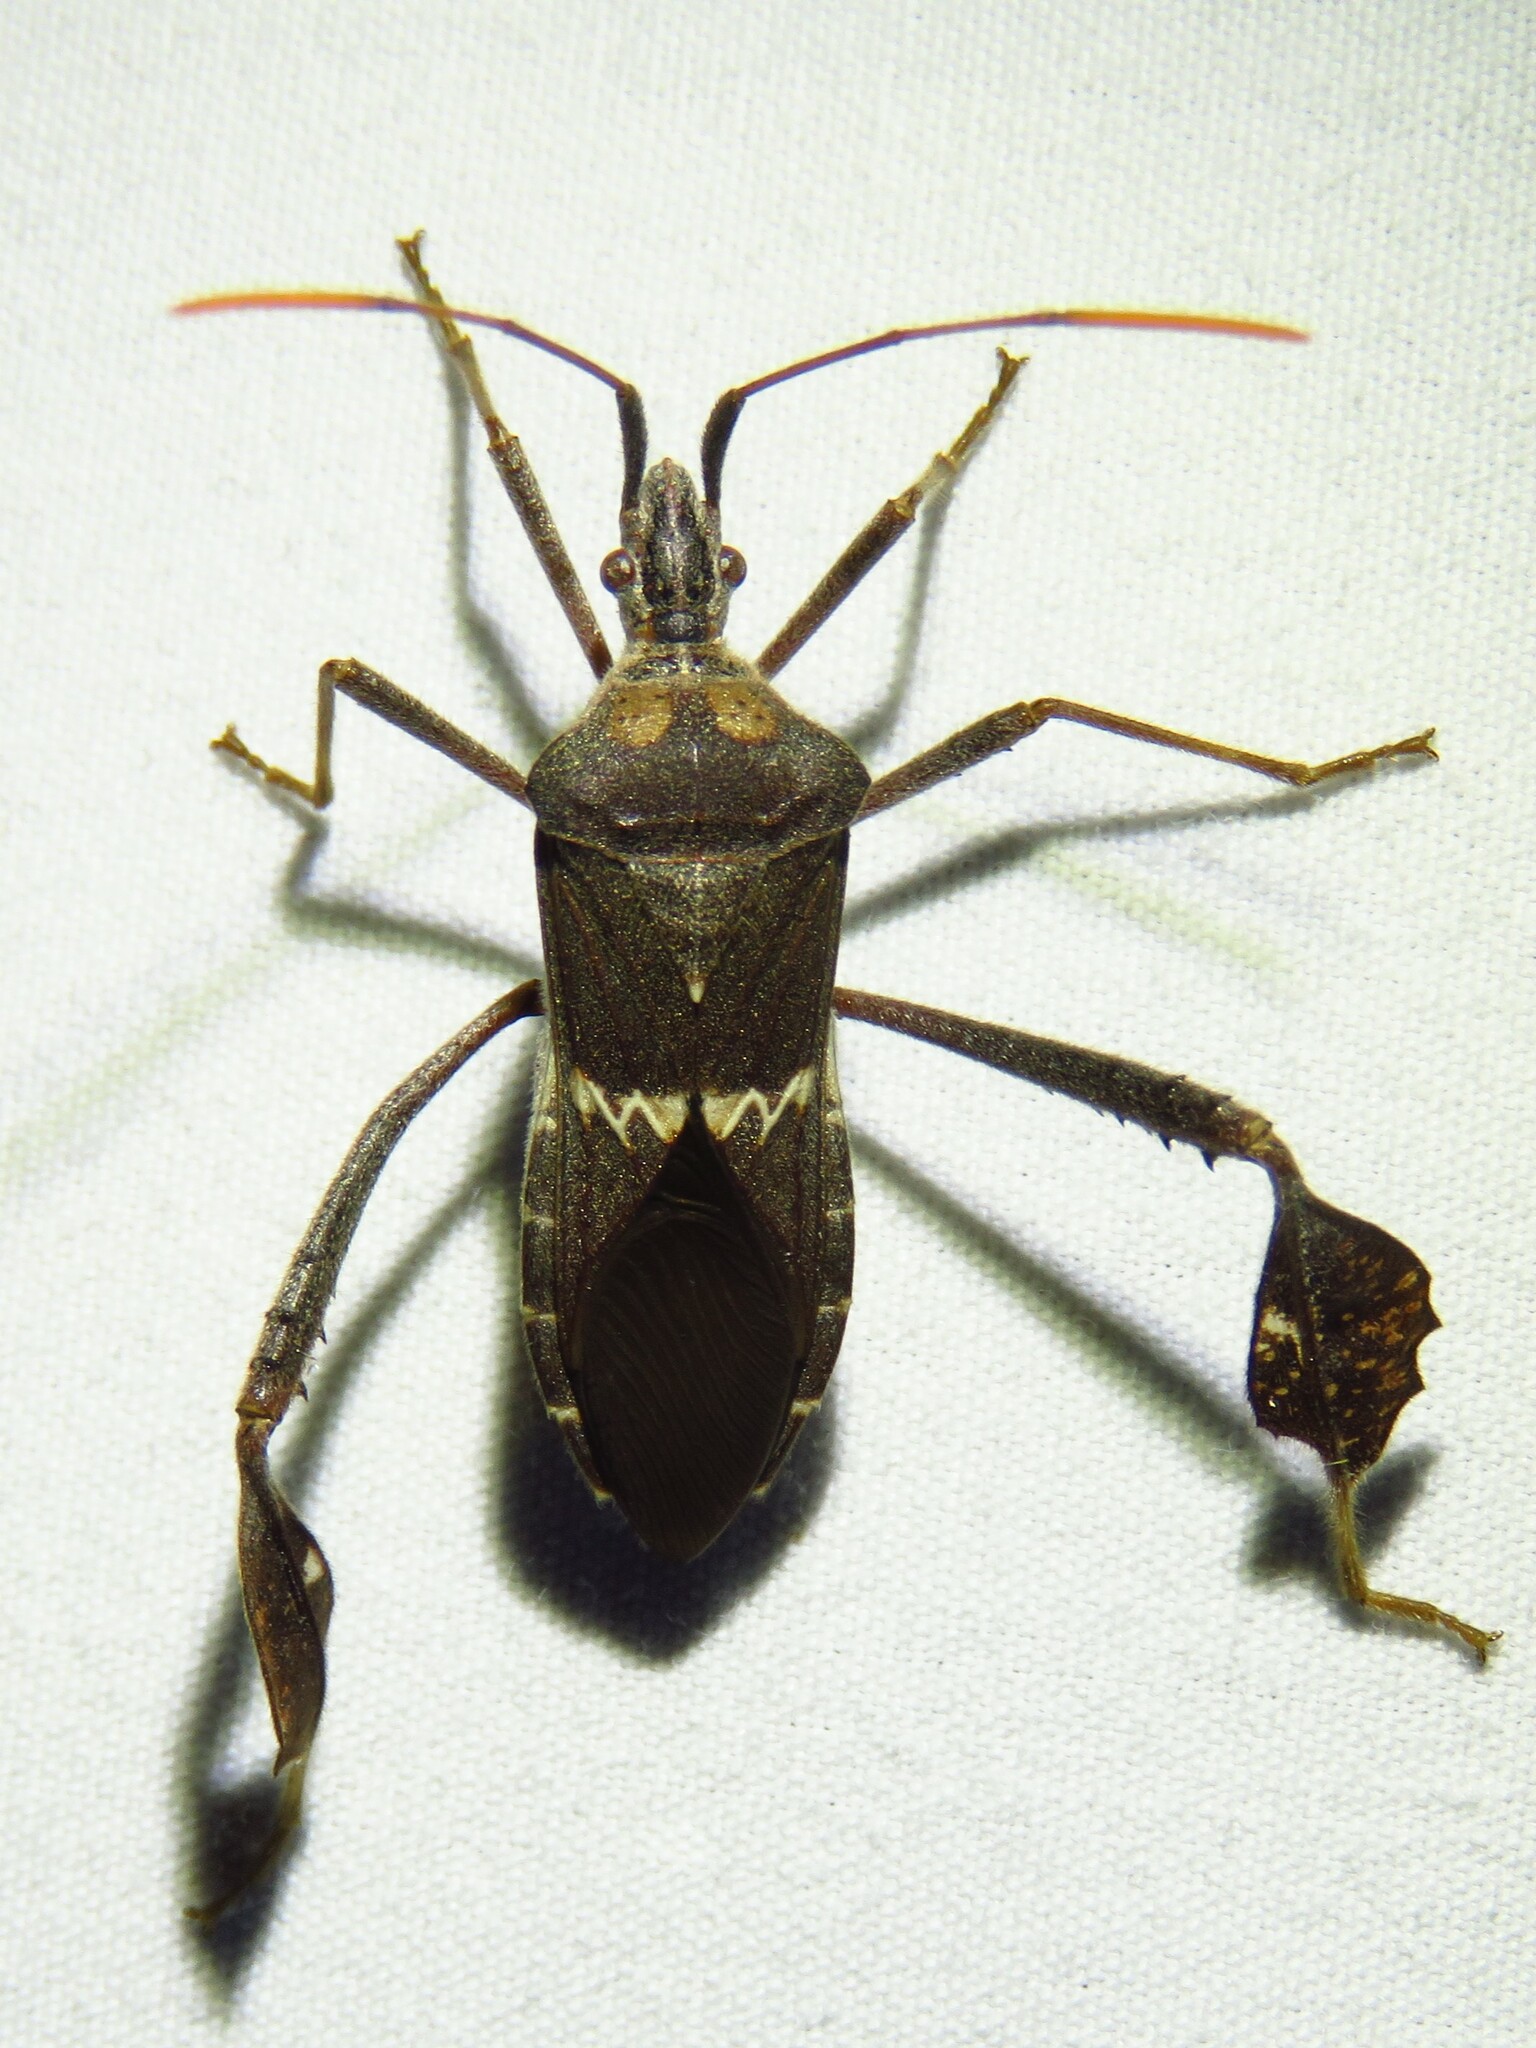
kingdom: Animalia
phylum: Arthropoda
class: Insecta
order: Hemiptera
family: Coreidae
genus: Leptoglossus
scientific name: Leptoglossus zonatus
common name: Large-legged bug
